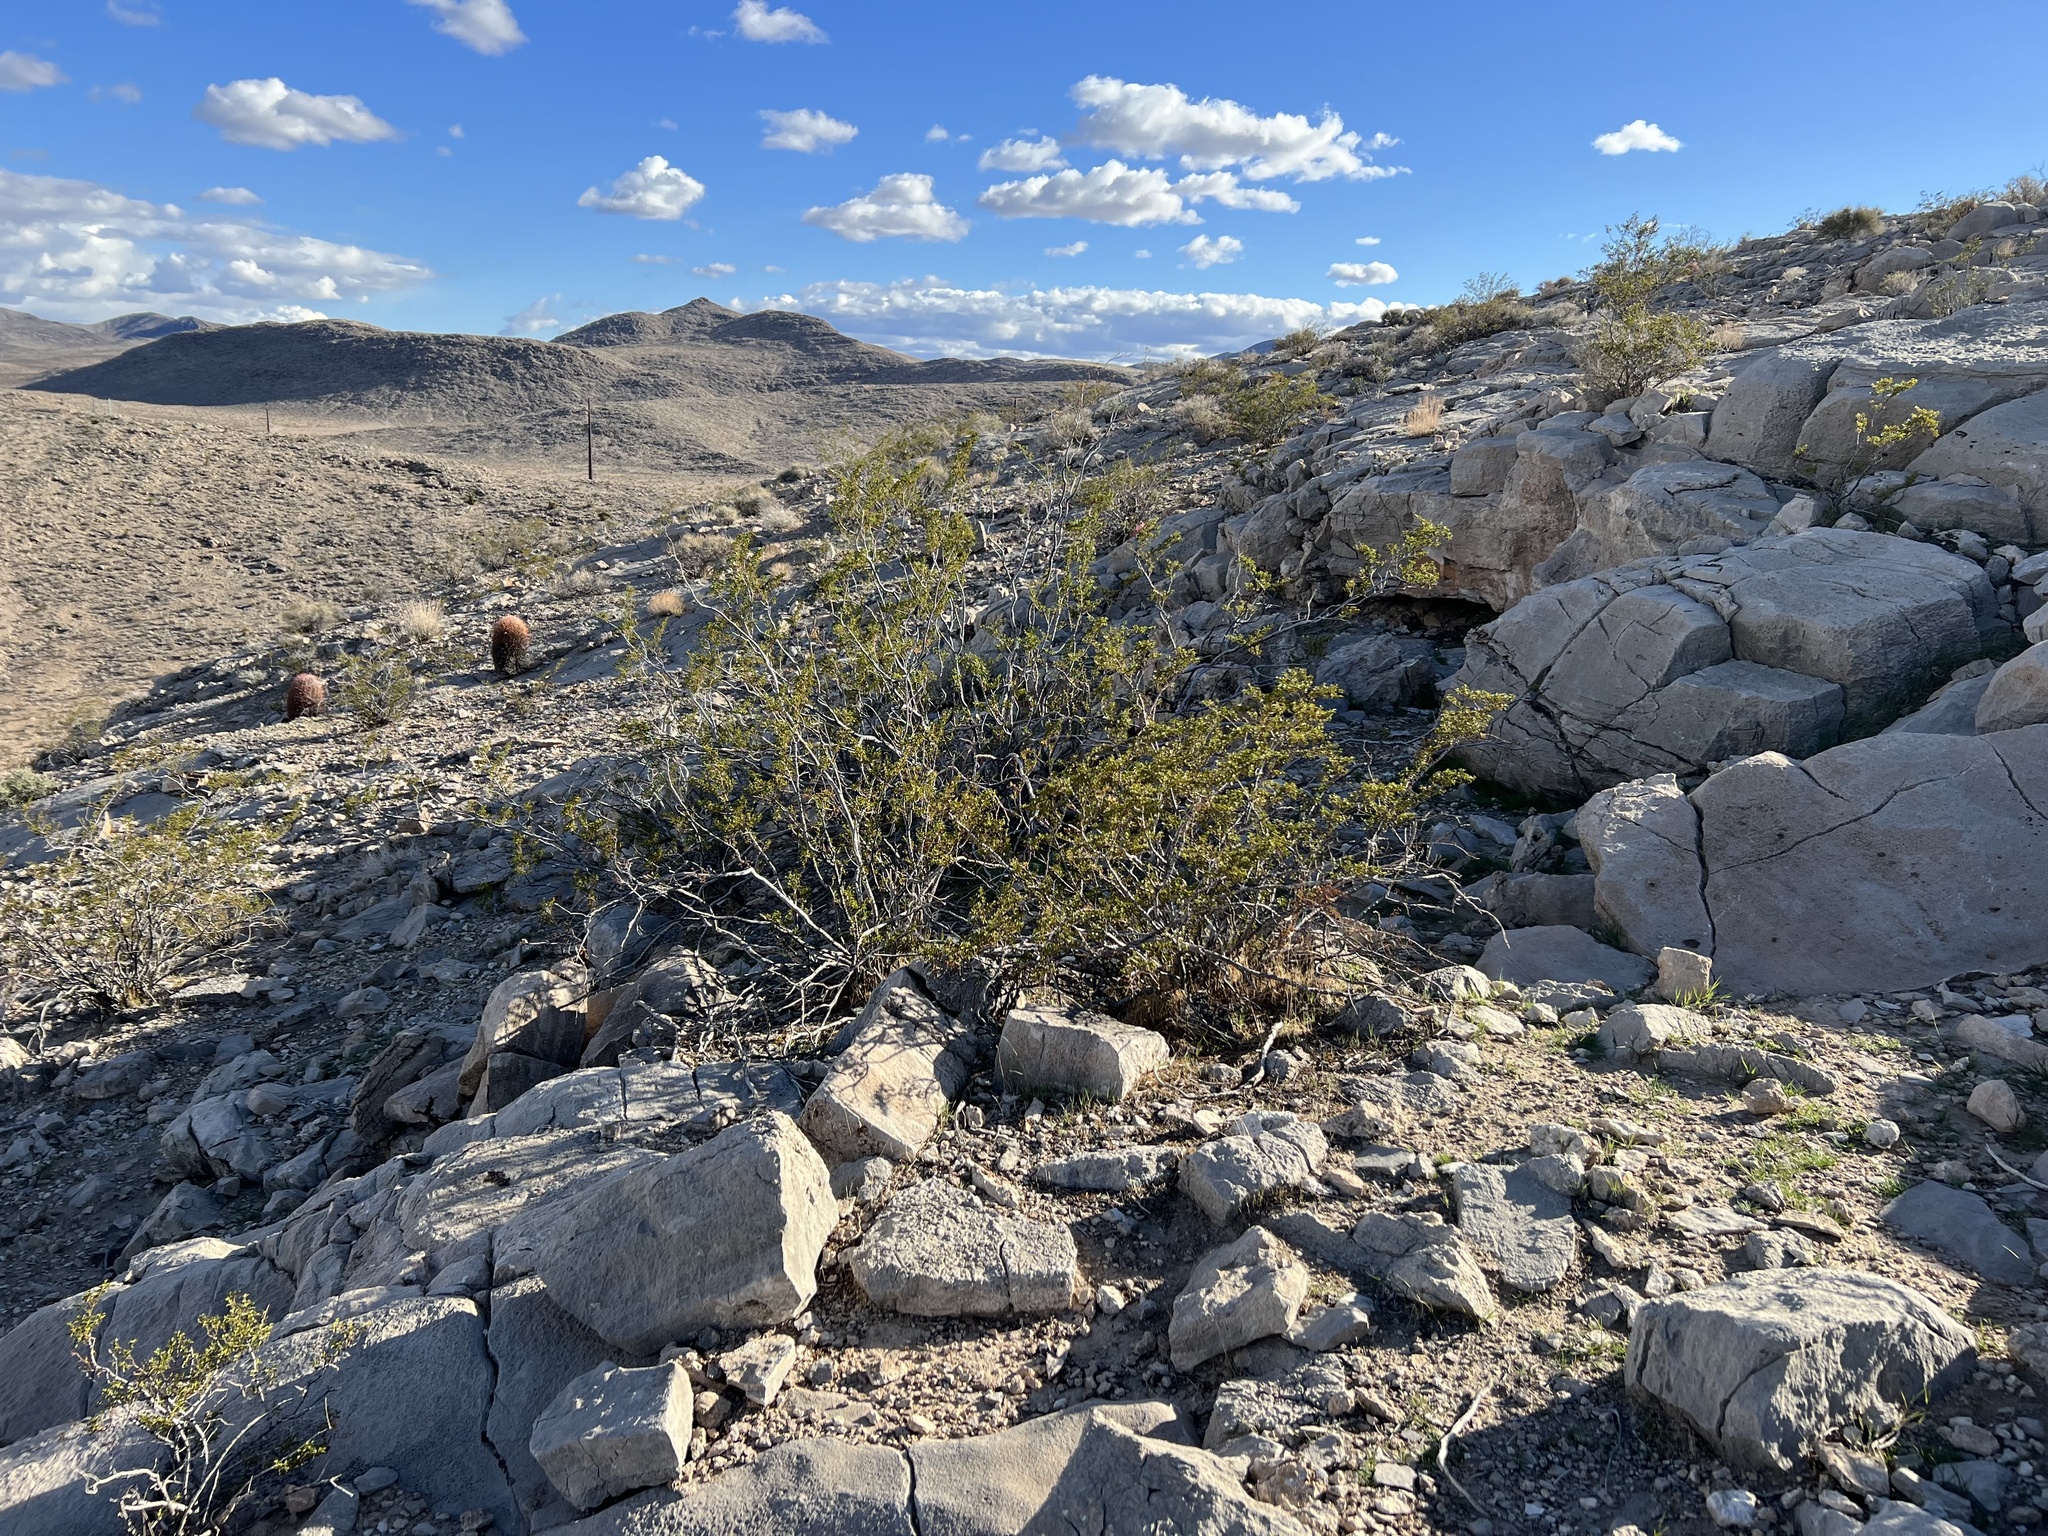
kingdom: Plantae
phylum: Tracheophyta
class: Magnoliopsida
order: Zygophyllales
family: Zygophyllaceae
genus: Larrea
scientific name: Larrea tridentata
